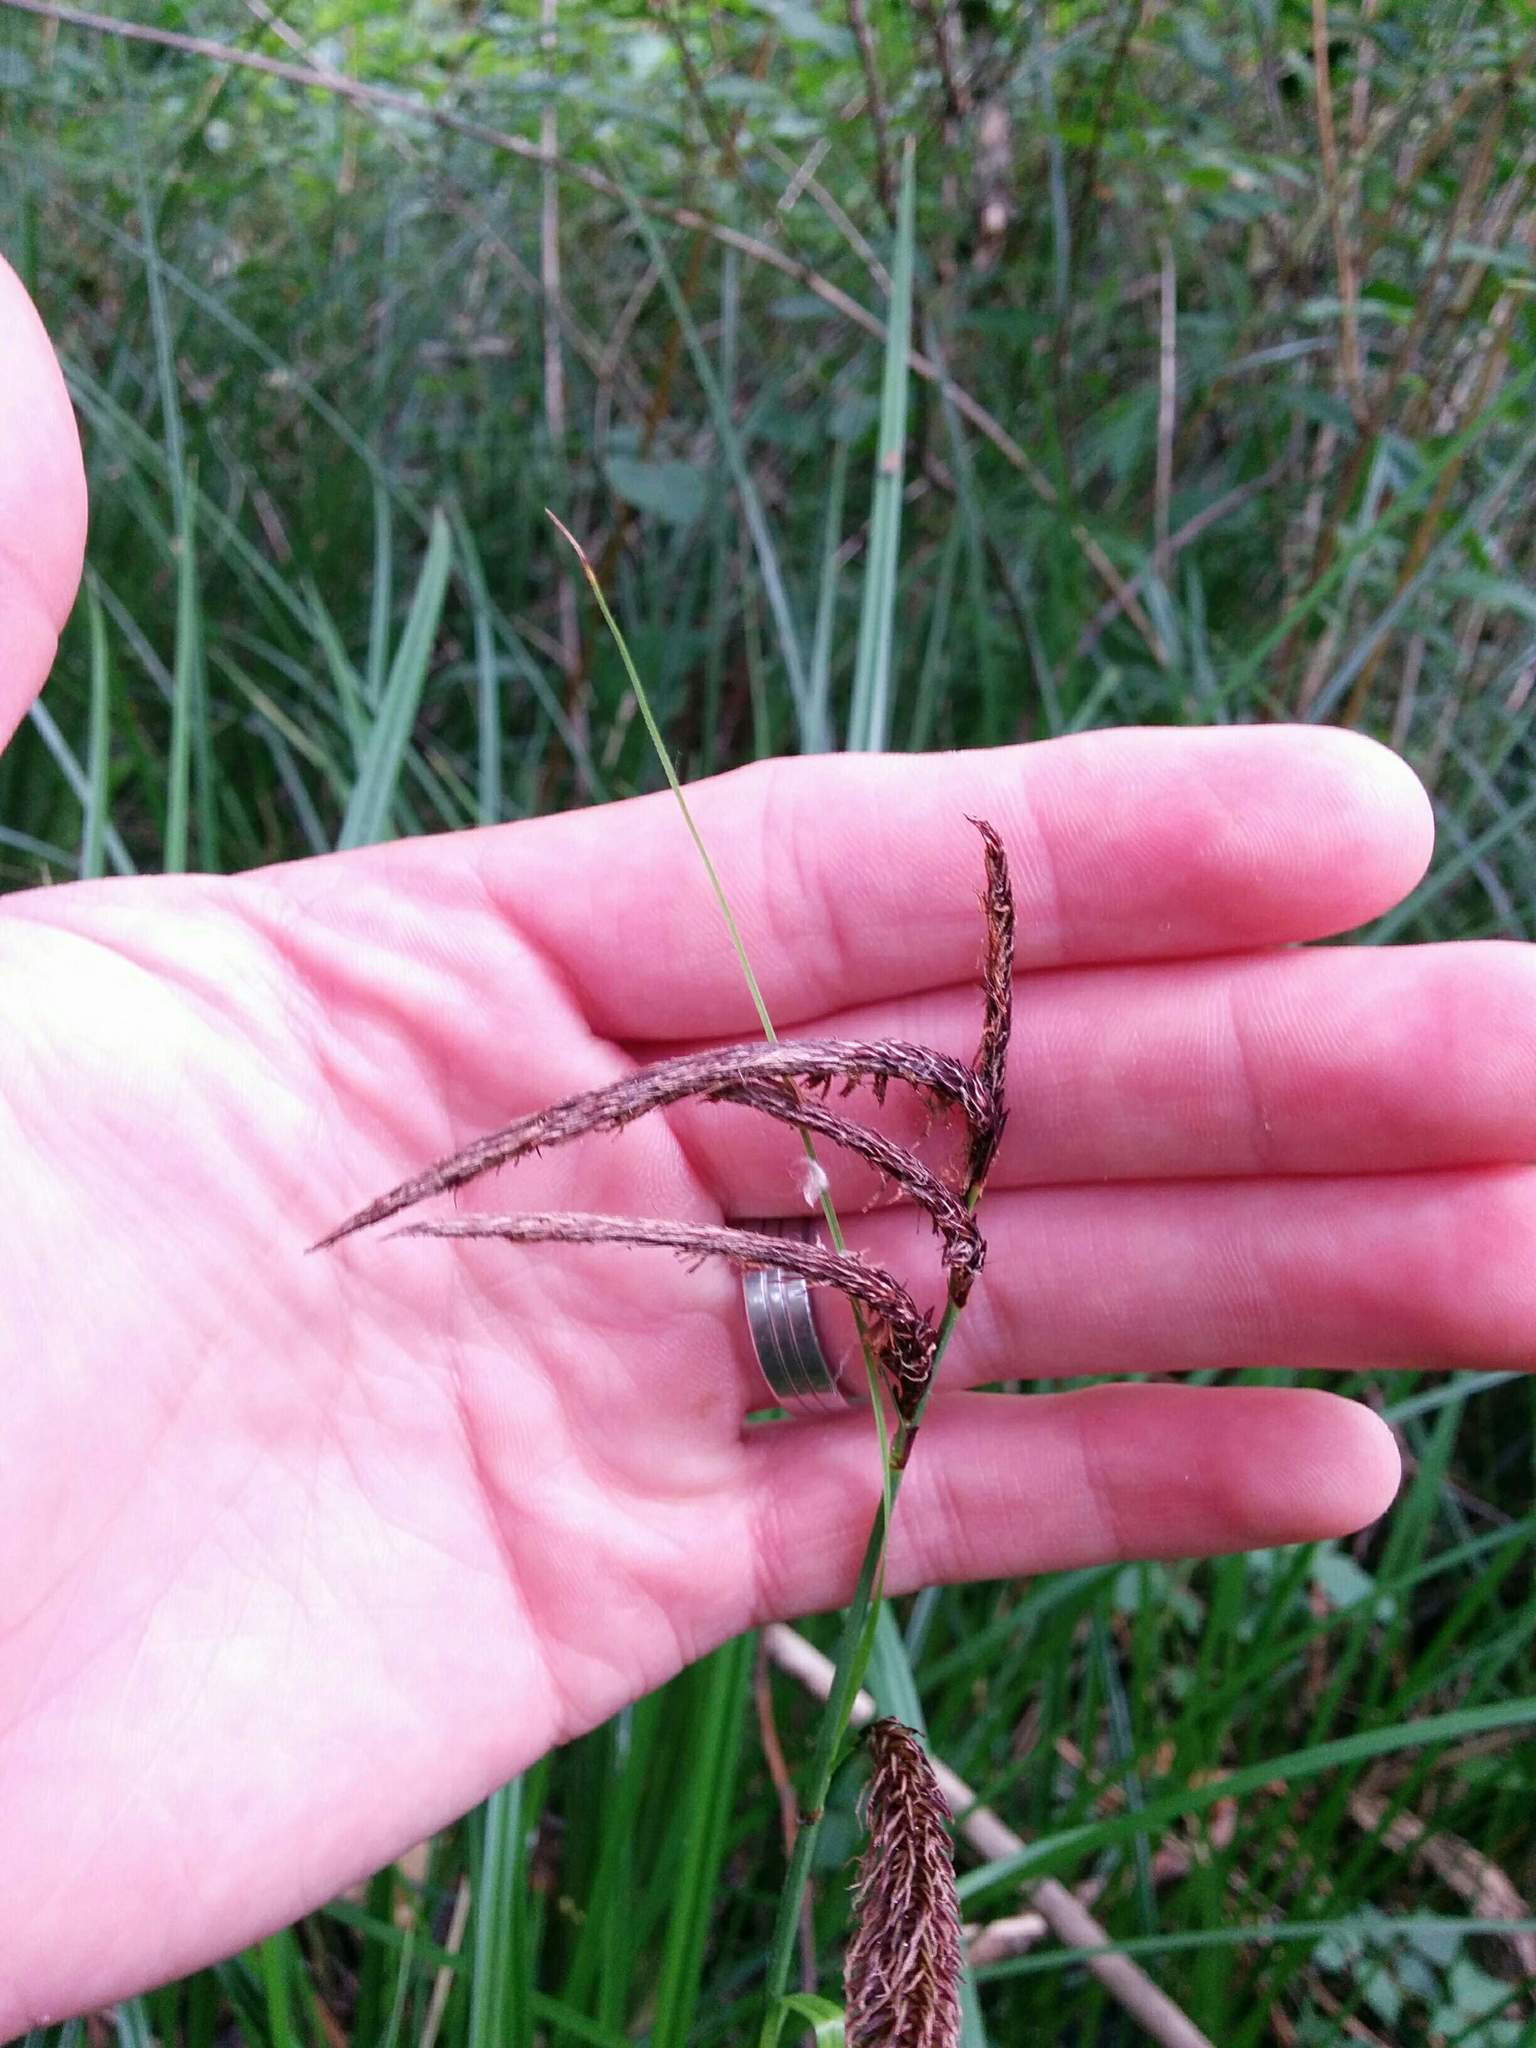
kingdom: Plantae
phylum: Tracheophyta
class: Liliopsida
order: Poales
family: Cyperaceae
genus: Carex
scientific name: Carex obnupta
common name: Slough sedge
